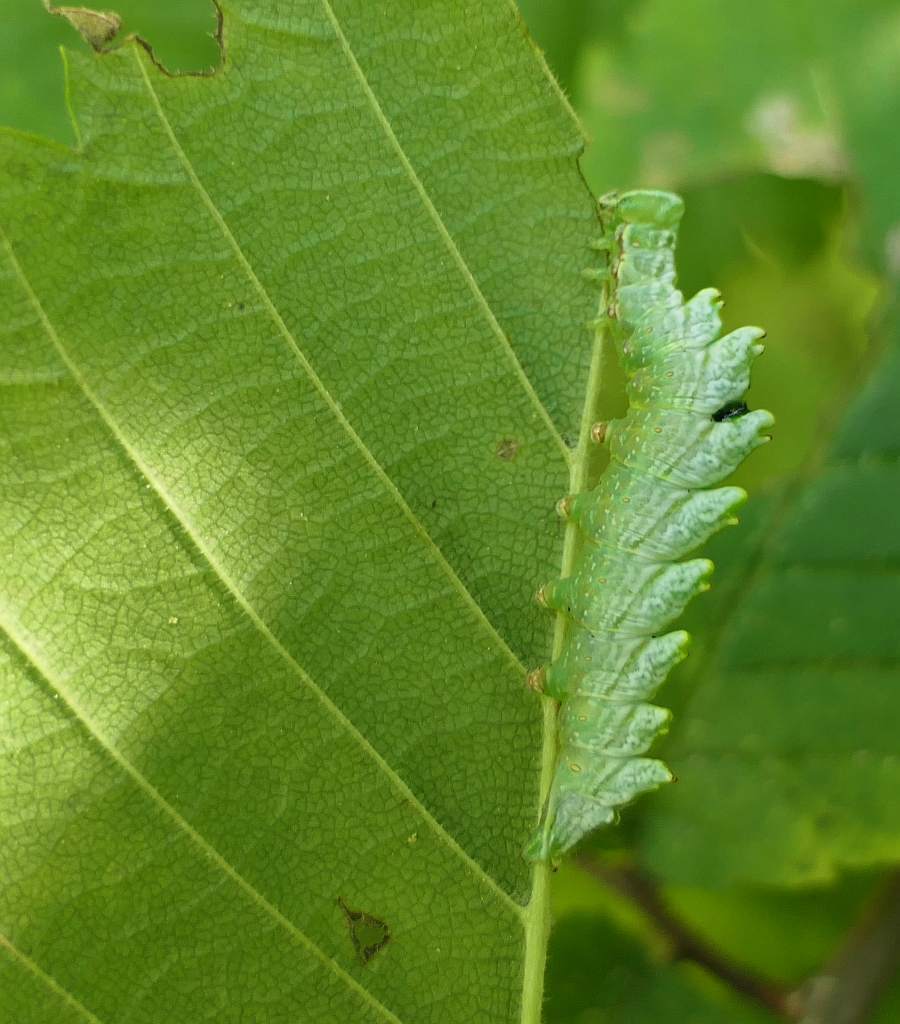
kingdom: Animalia
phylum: Arthropoda
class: Insecta
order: Lepidoptera
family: Notodontidae
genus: Nerice
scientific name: Nerice bidentata
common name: Double-toothed prominent
